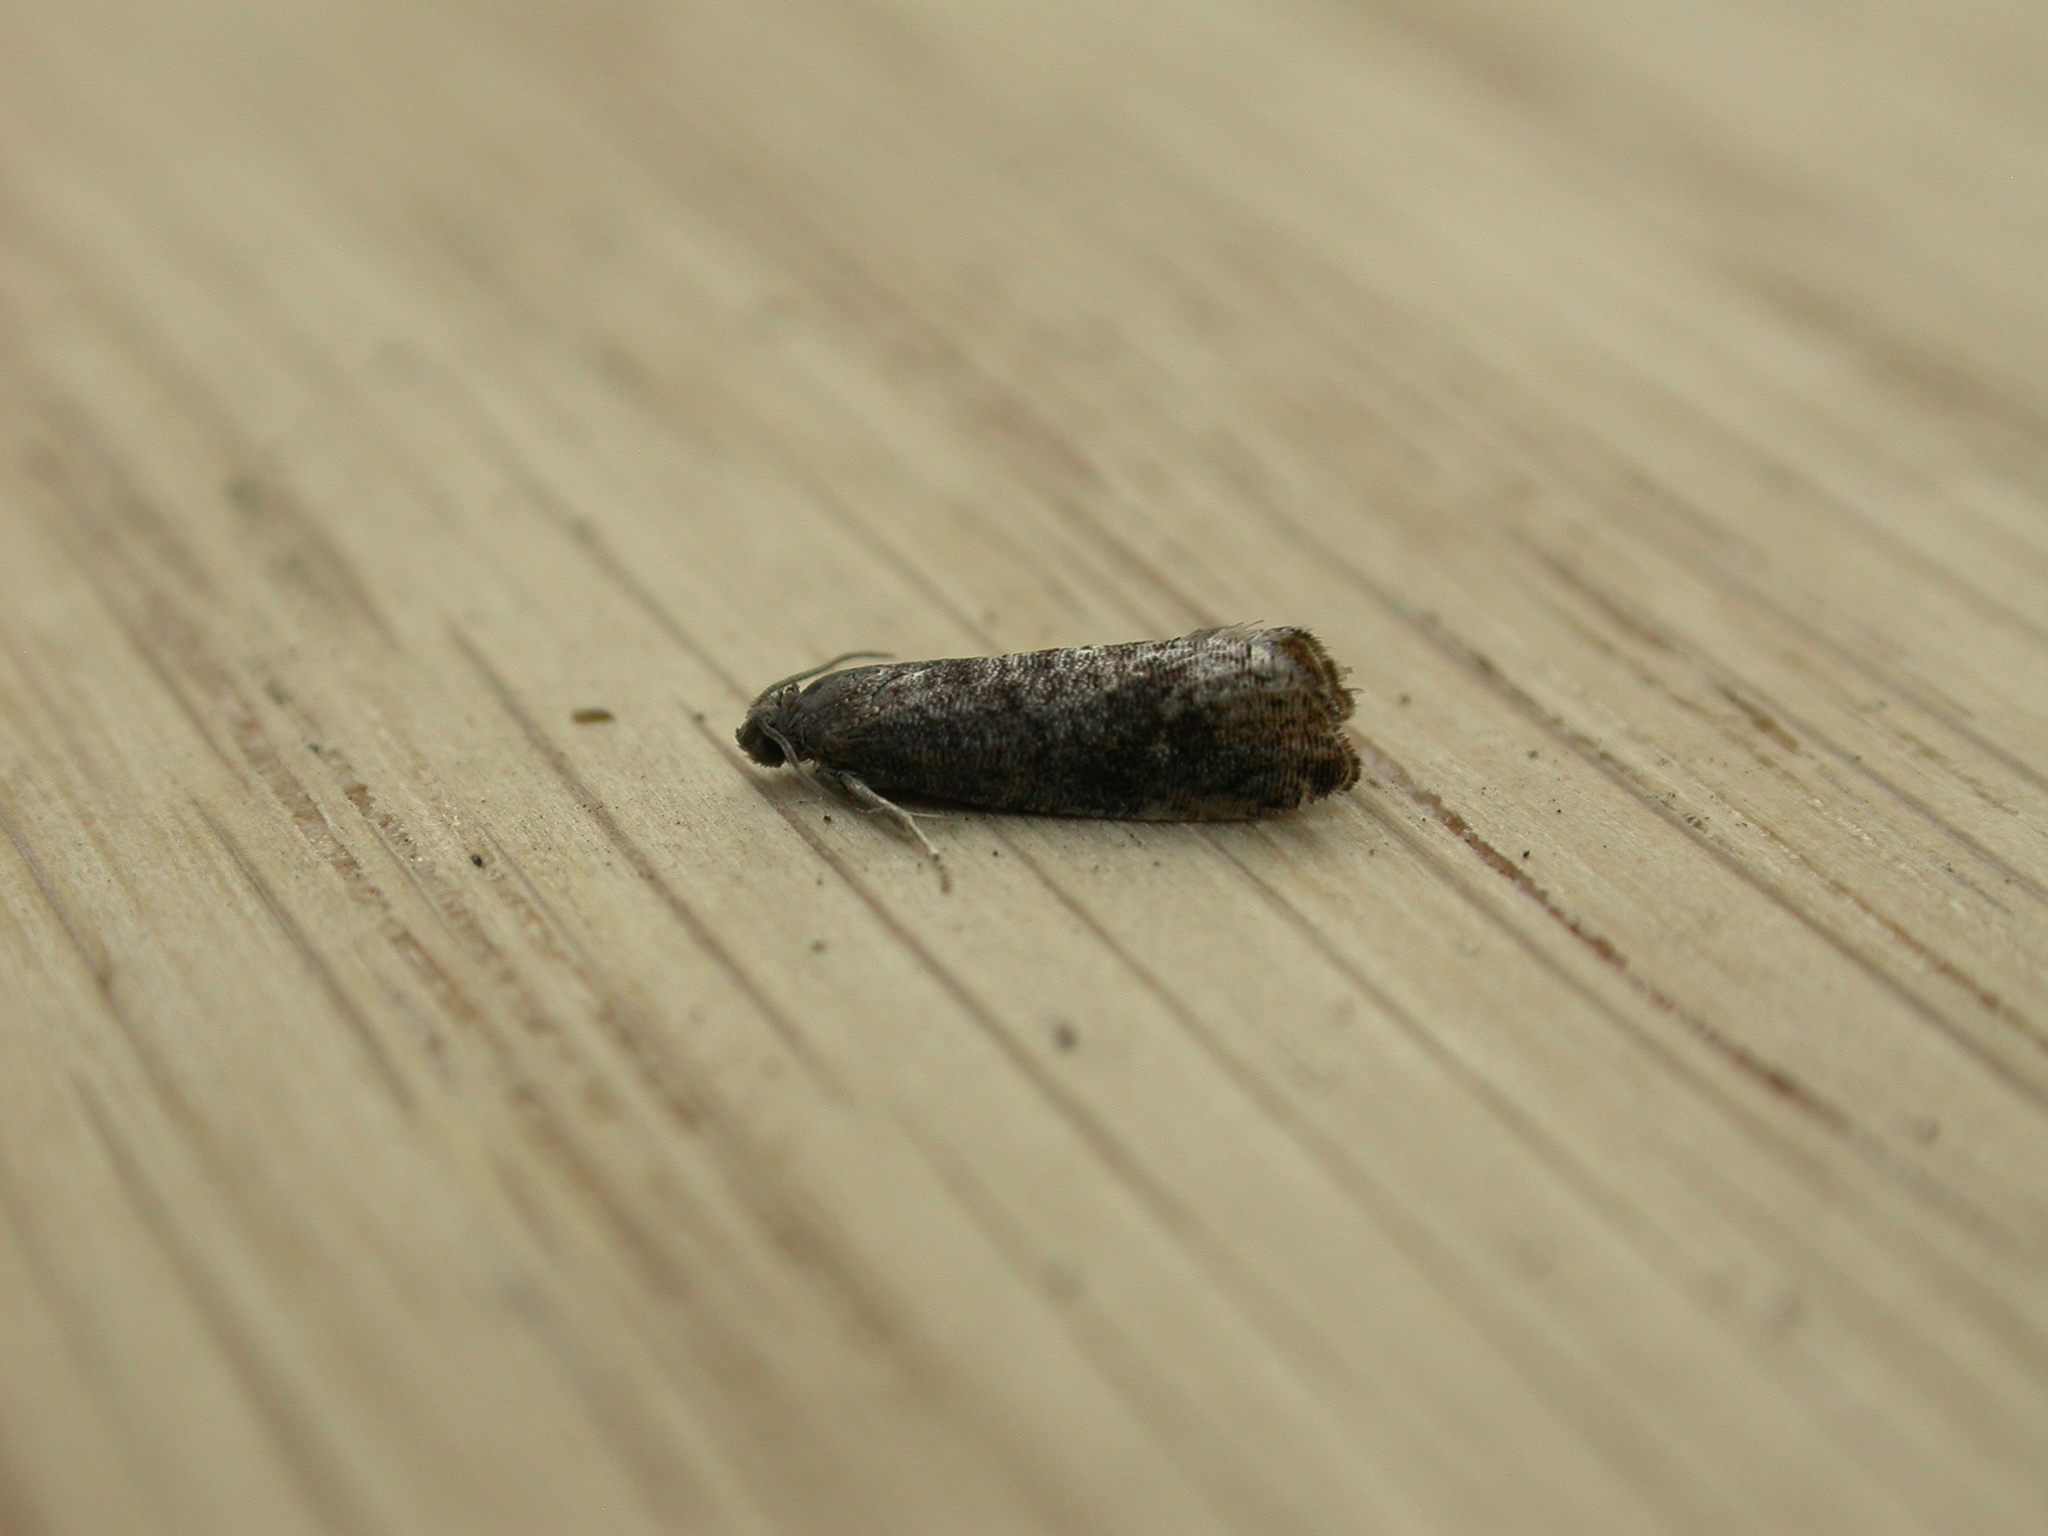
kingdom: Animalia
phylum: Arthropoda
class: Insecta
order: Lepidoptera
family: Noctuidae
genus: Aspila
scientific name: Aspila
